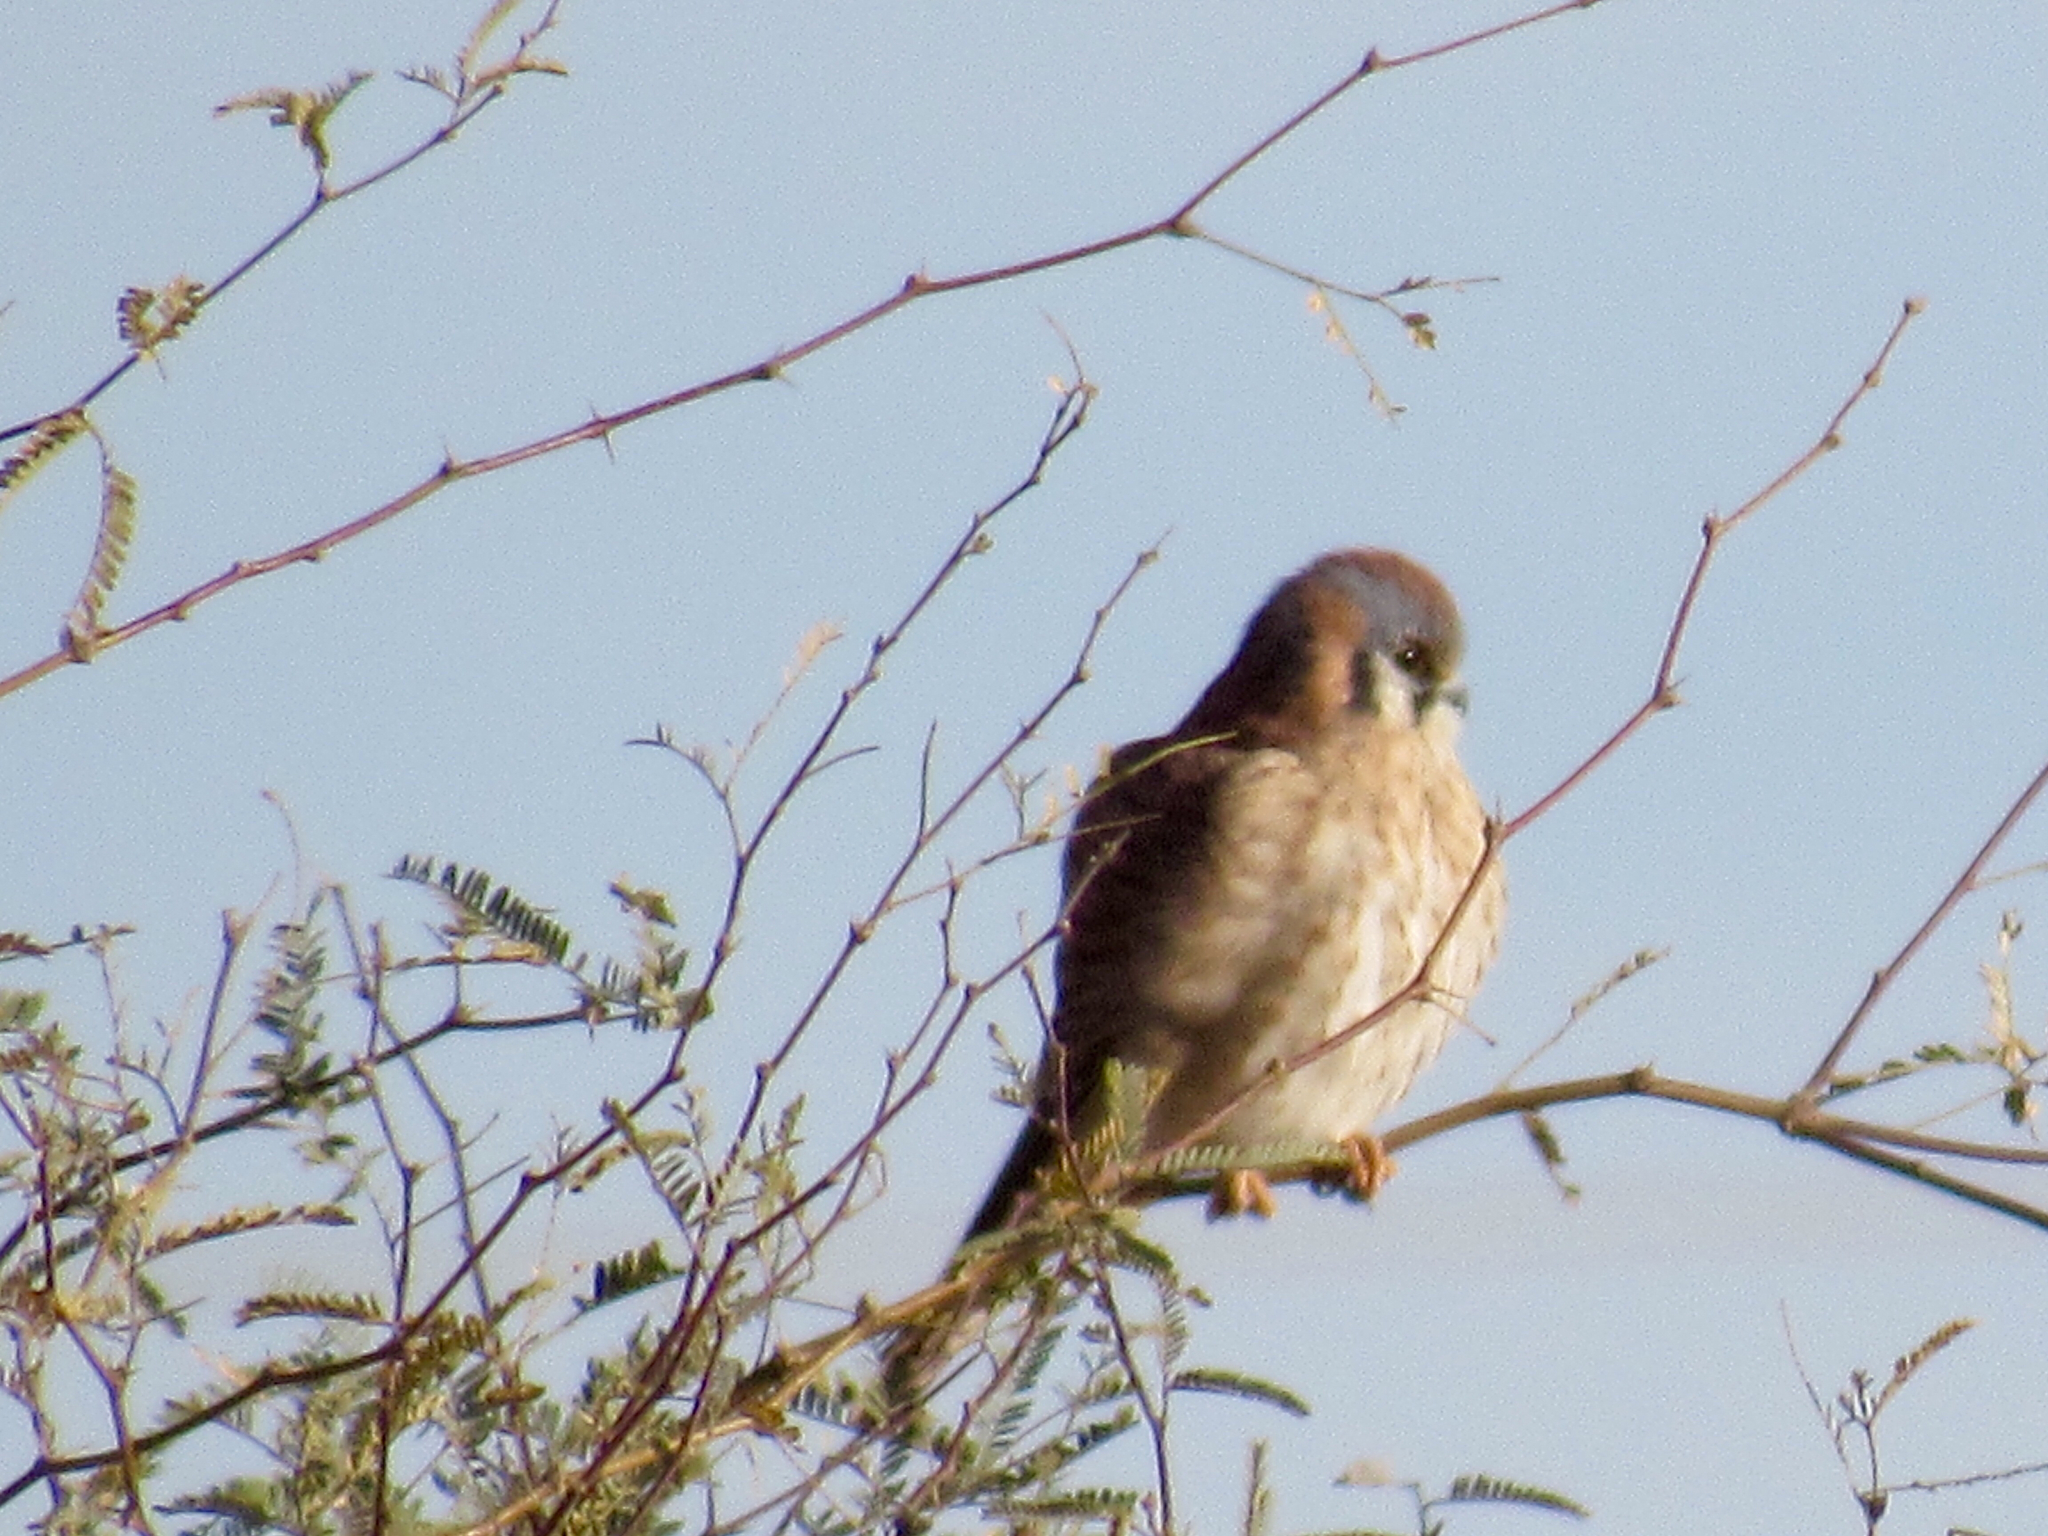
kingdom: Animalia
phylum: Chordata
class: Aves
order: Falconiformes
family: Falconidae
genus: Falco
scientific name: Falco sparverius
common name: American kestrel
